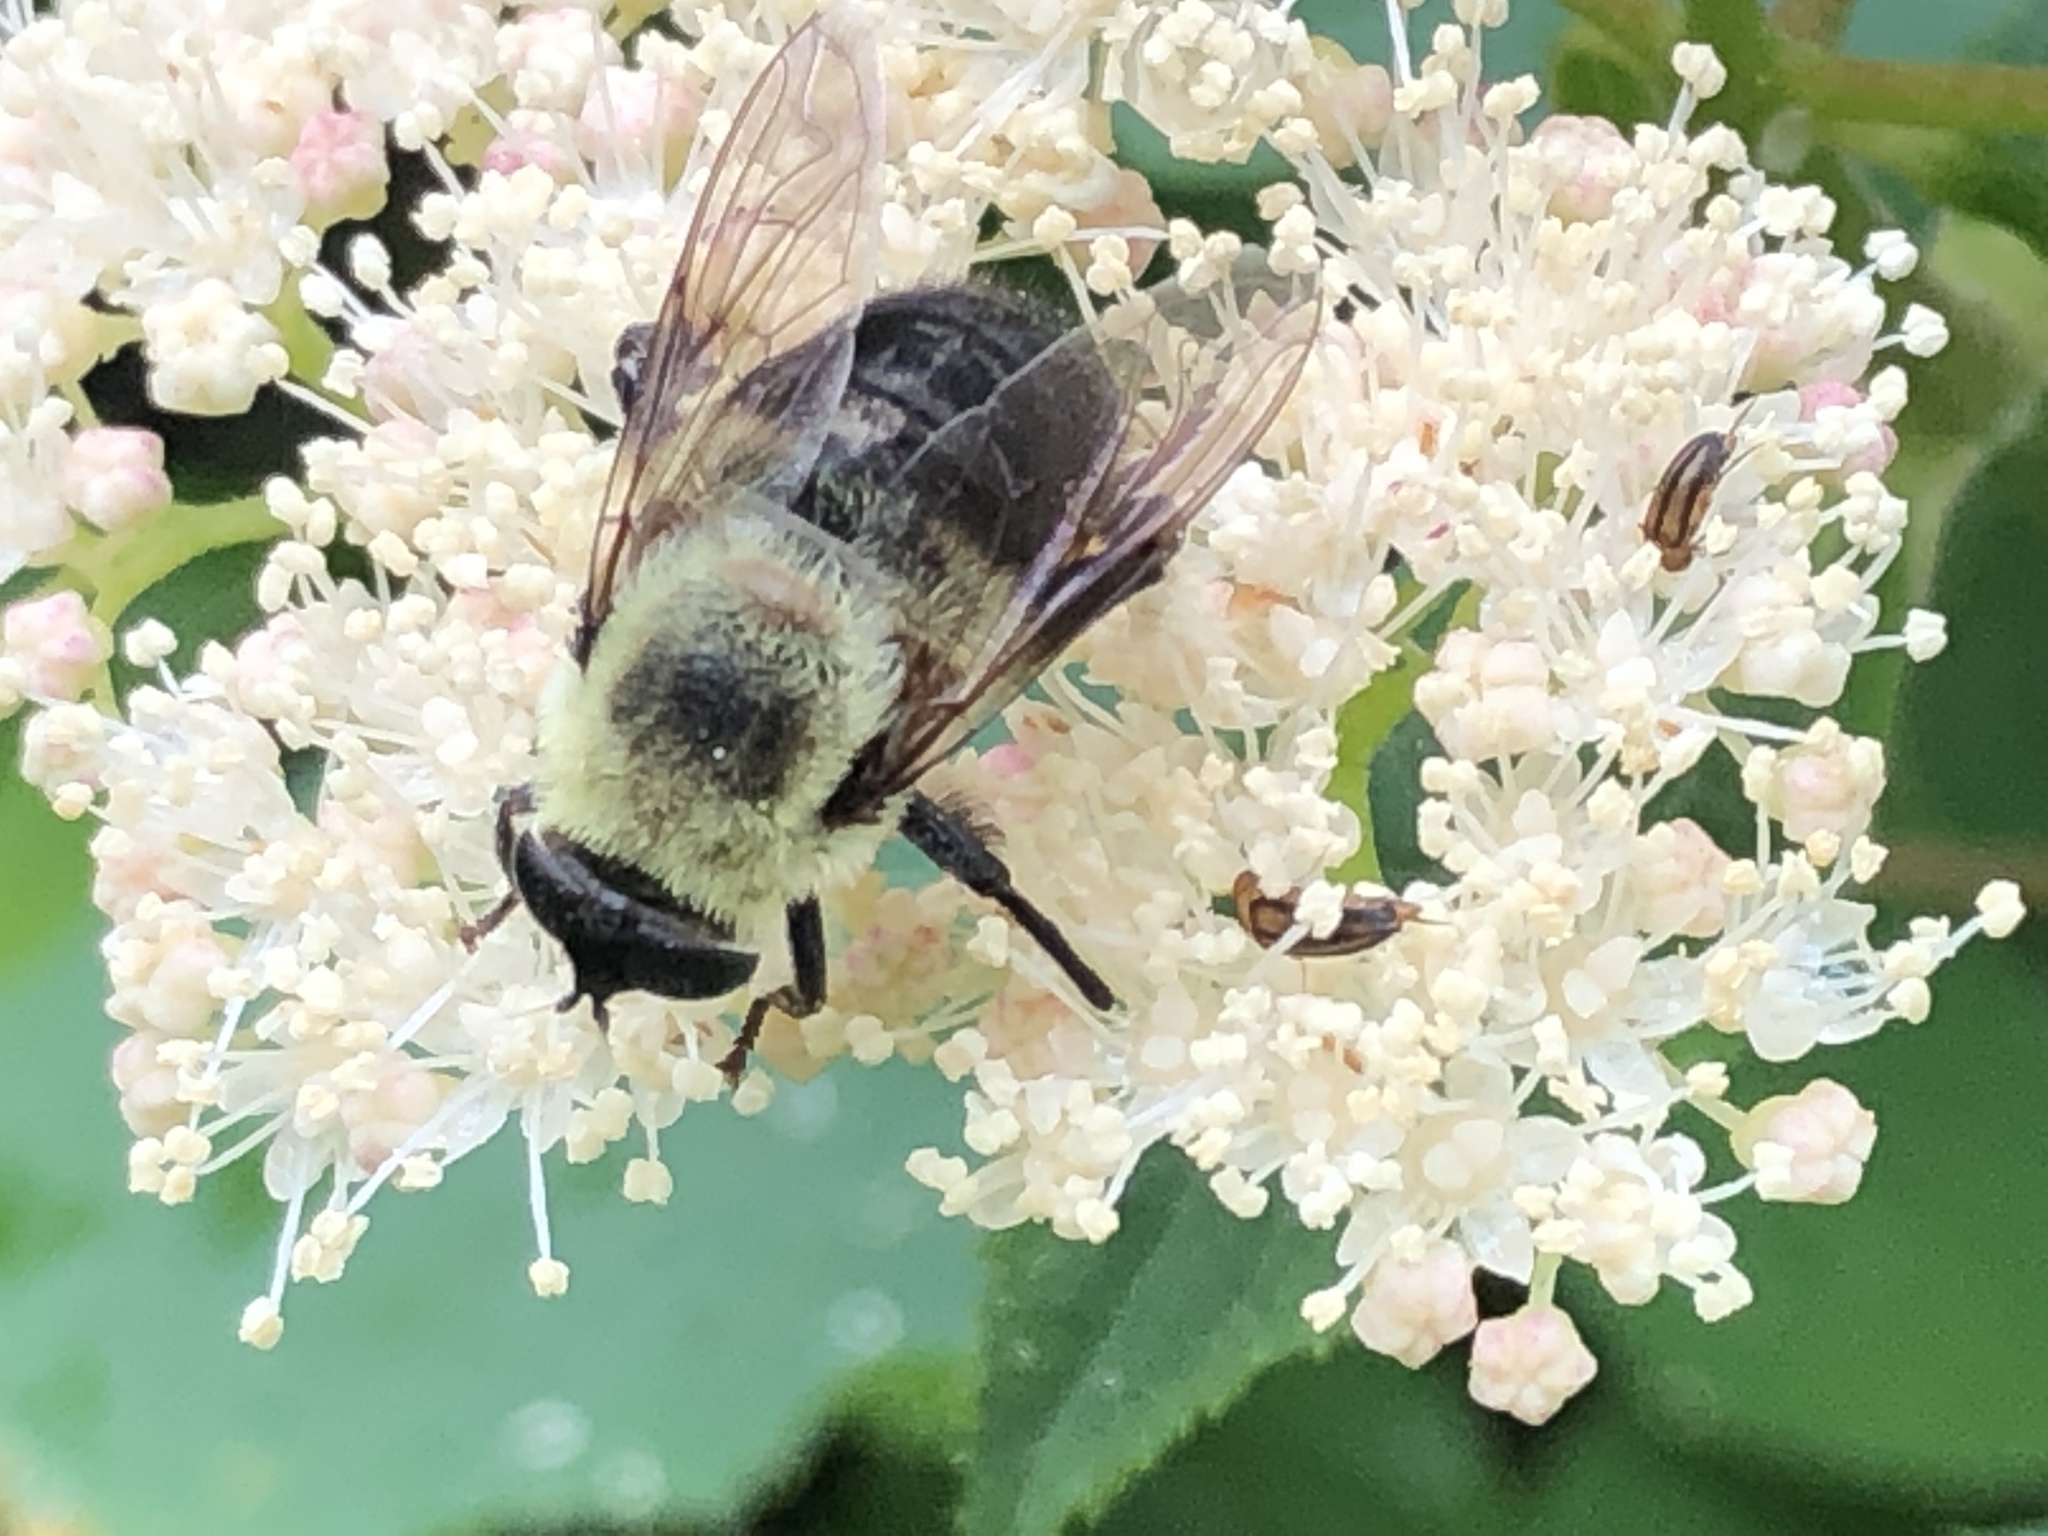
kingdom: Animalia
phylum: Arthropoda
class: Insecta
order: Diptera
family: Syrphidae
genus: Imatisma
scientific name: Imatisma posticata
